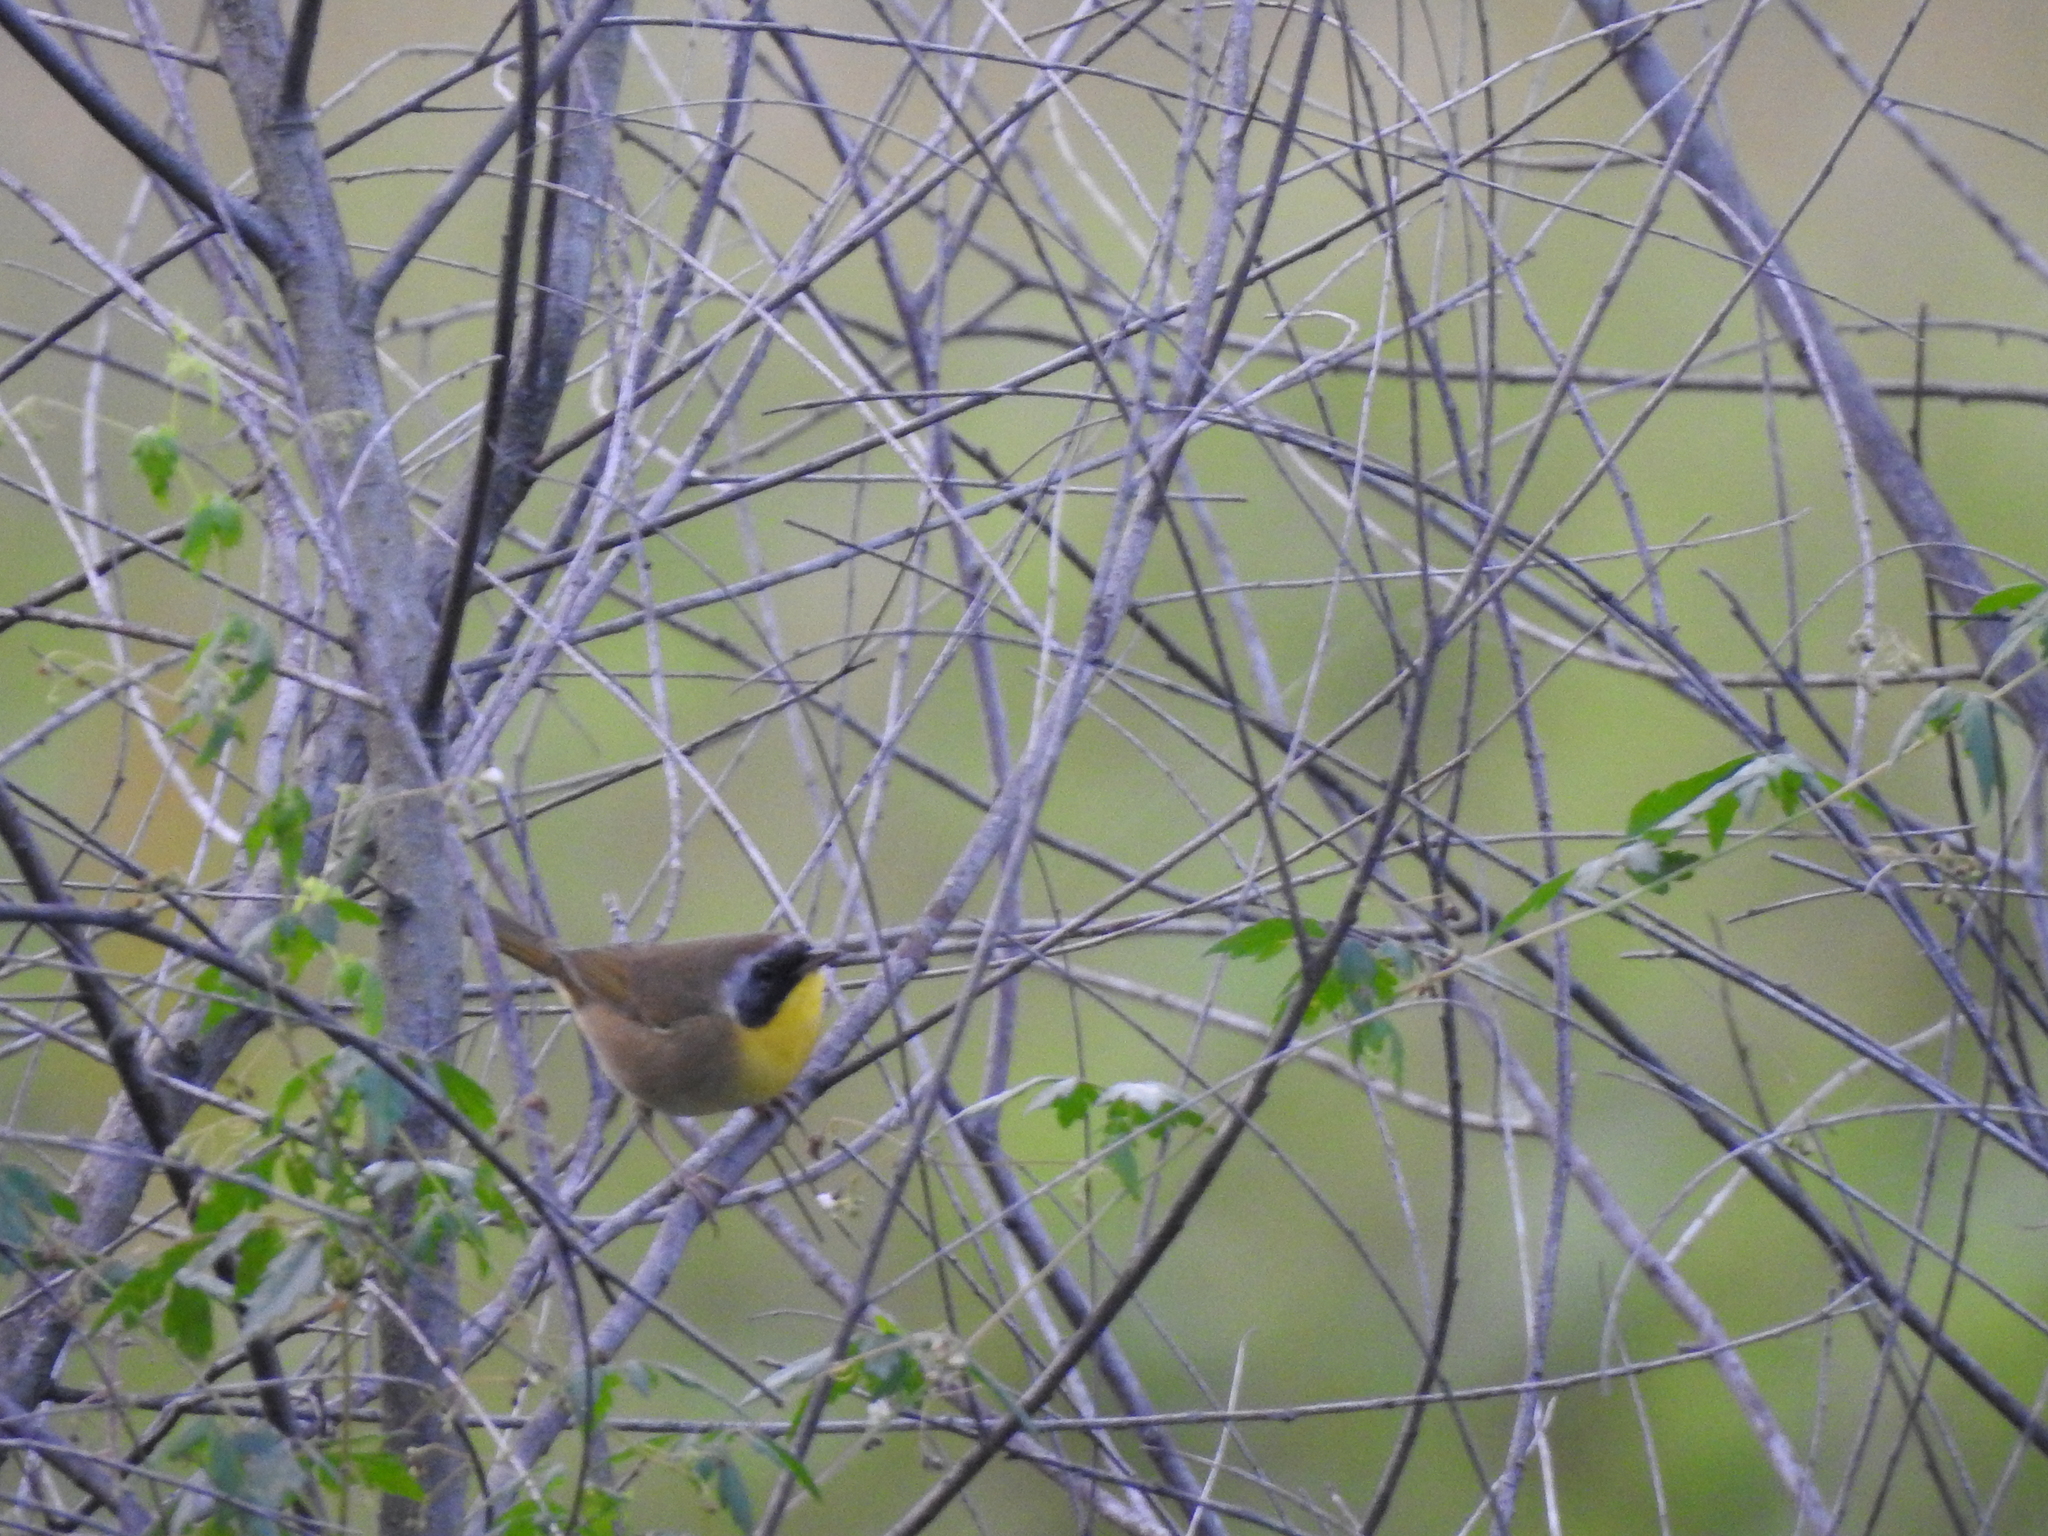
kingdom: Animalia
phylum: Chordata
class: Aves
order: Passeriformes
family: Parulidae
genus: Geothlypis
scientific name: Geothlypis trichas
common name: Common yellowthroat
